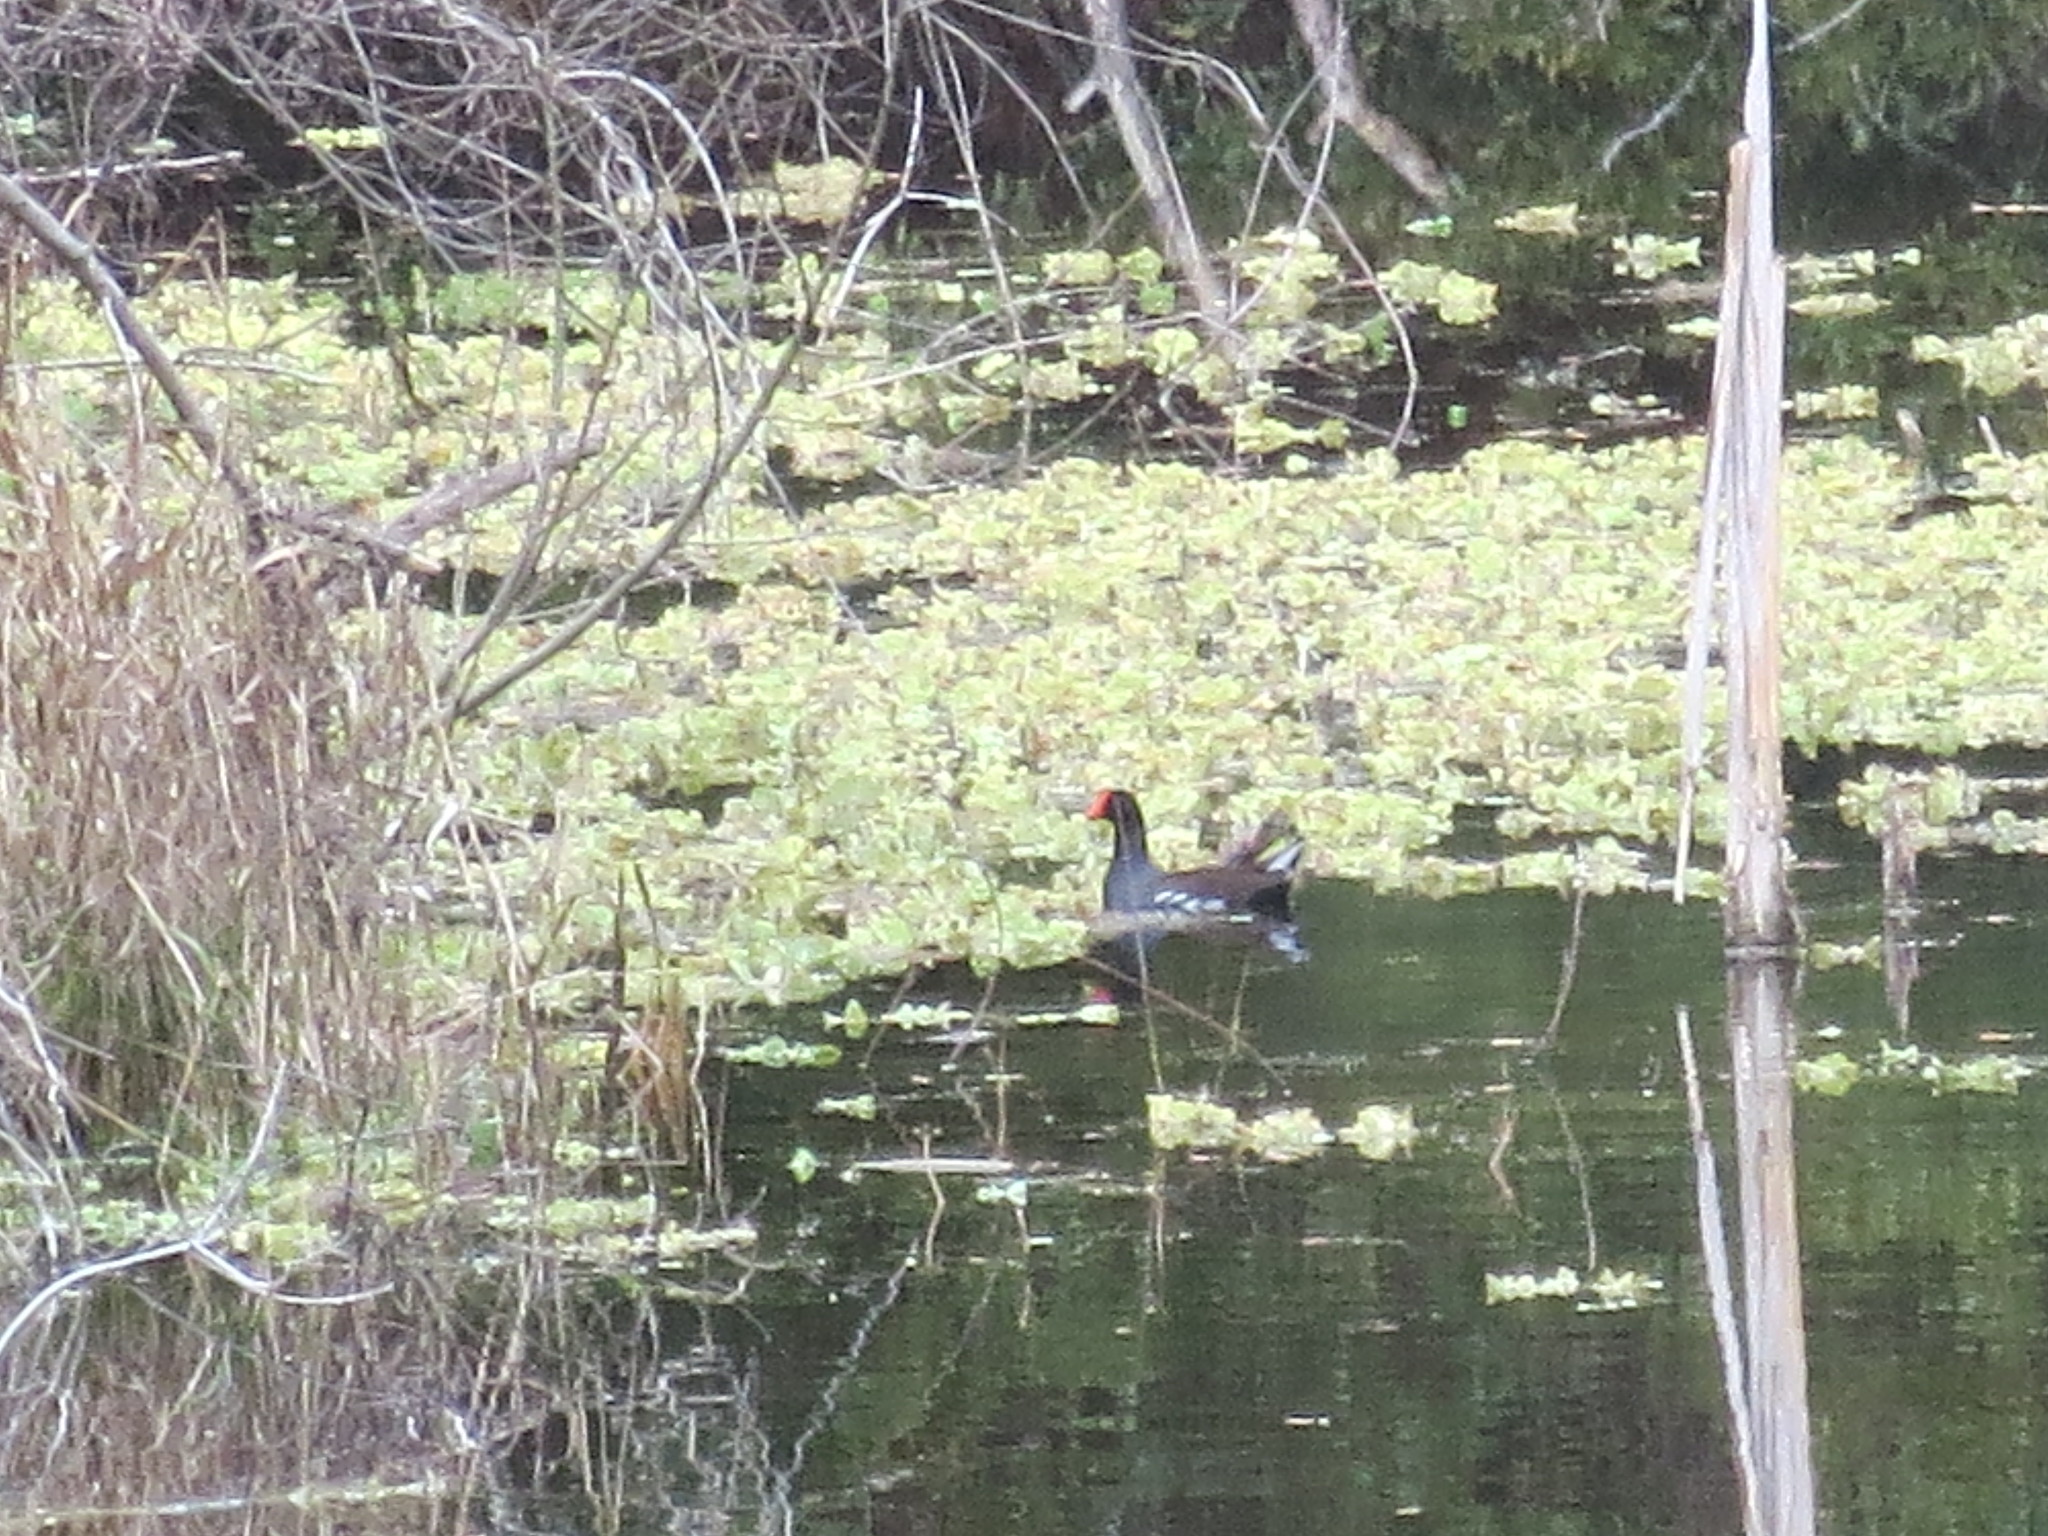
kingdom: Animalia
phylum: Chordata
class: Aves
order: Gruiformes
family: Rallidae
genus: Gallinula
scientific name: Gallinula chloropus
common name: Common moorhen
